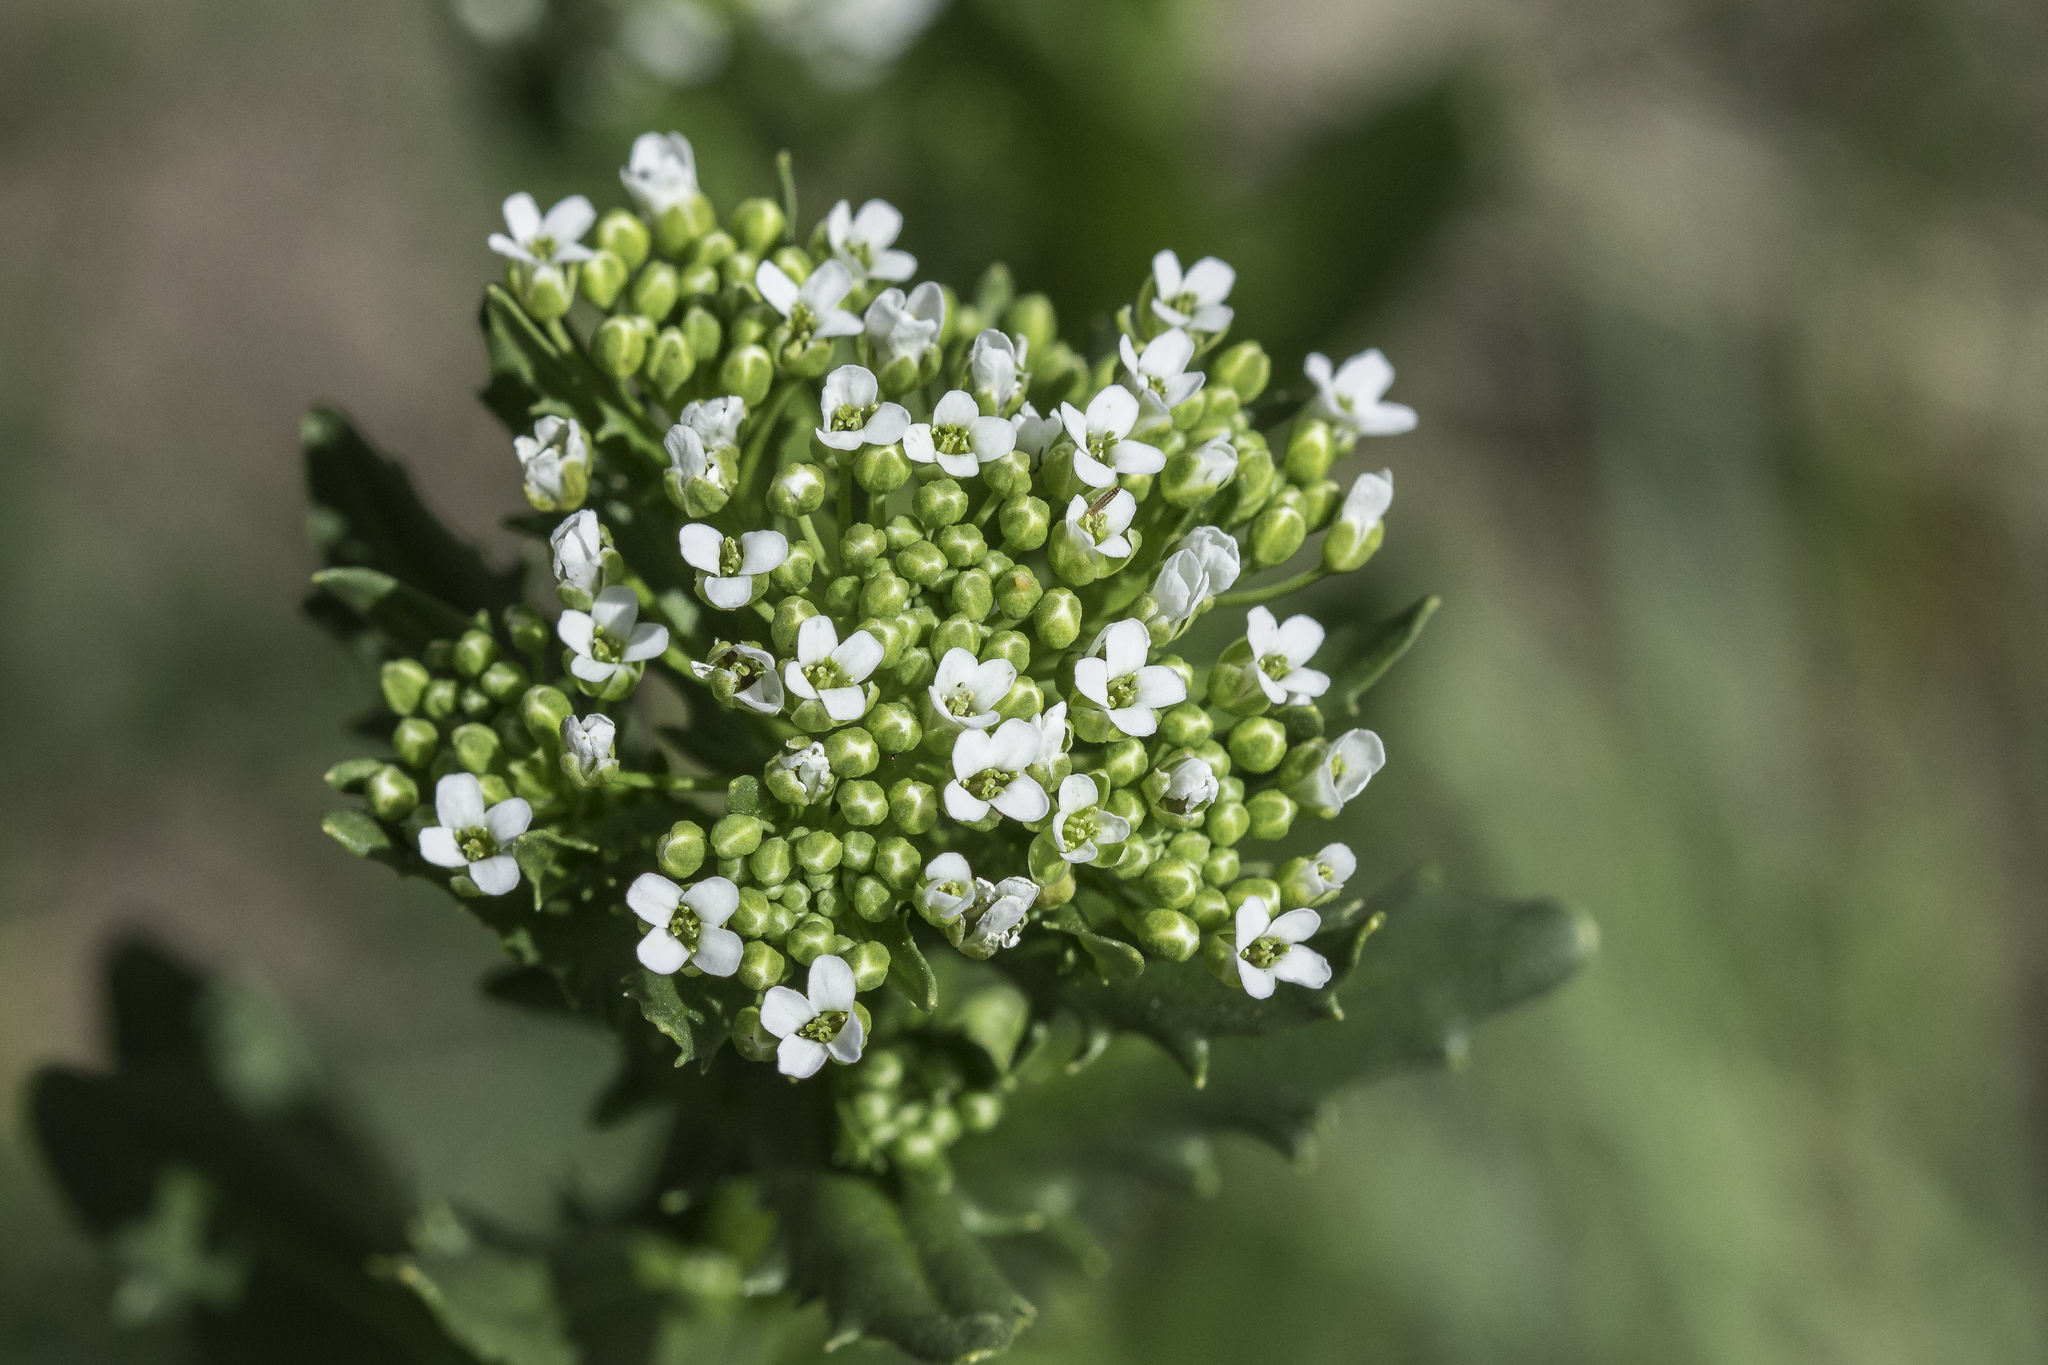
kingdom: Plantae
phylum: Tracheophyta
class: Magnoliopsida
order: Brassicales
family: Brassicaceae
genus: Thlaspi
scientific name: Thlaspi arvense
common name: Field pennycress
